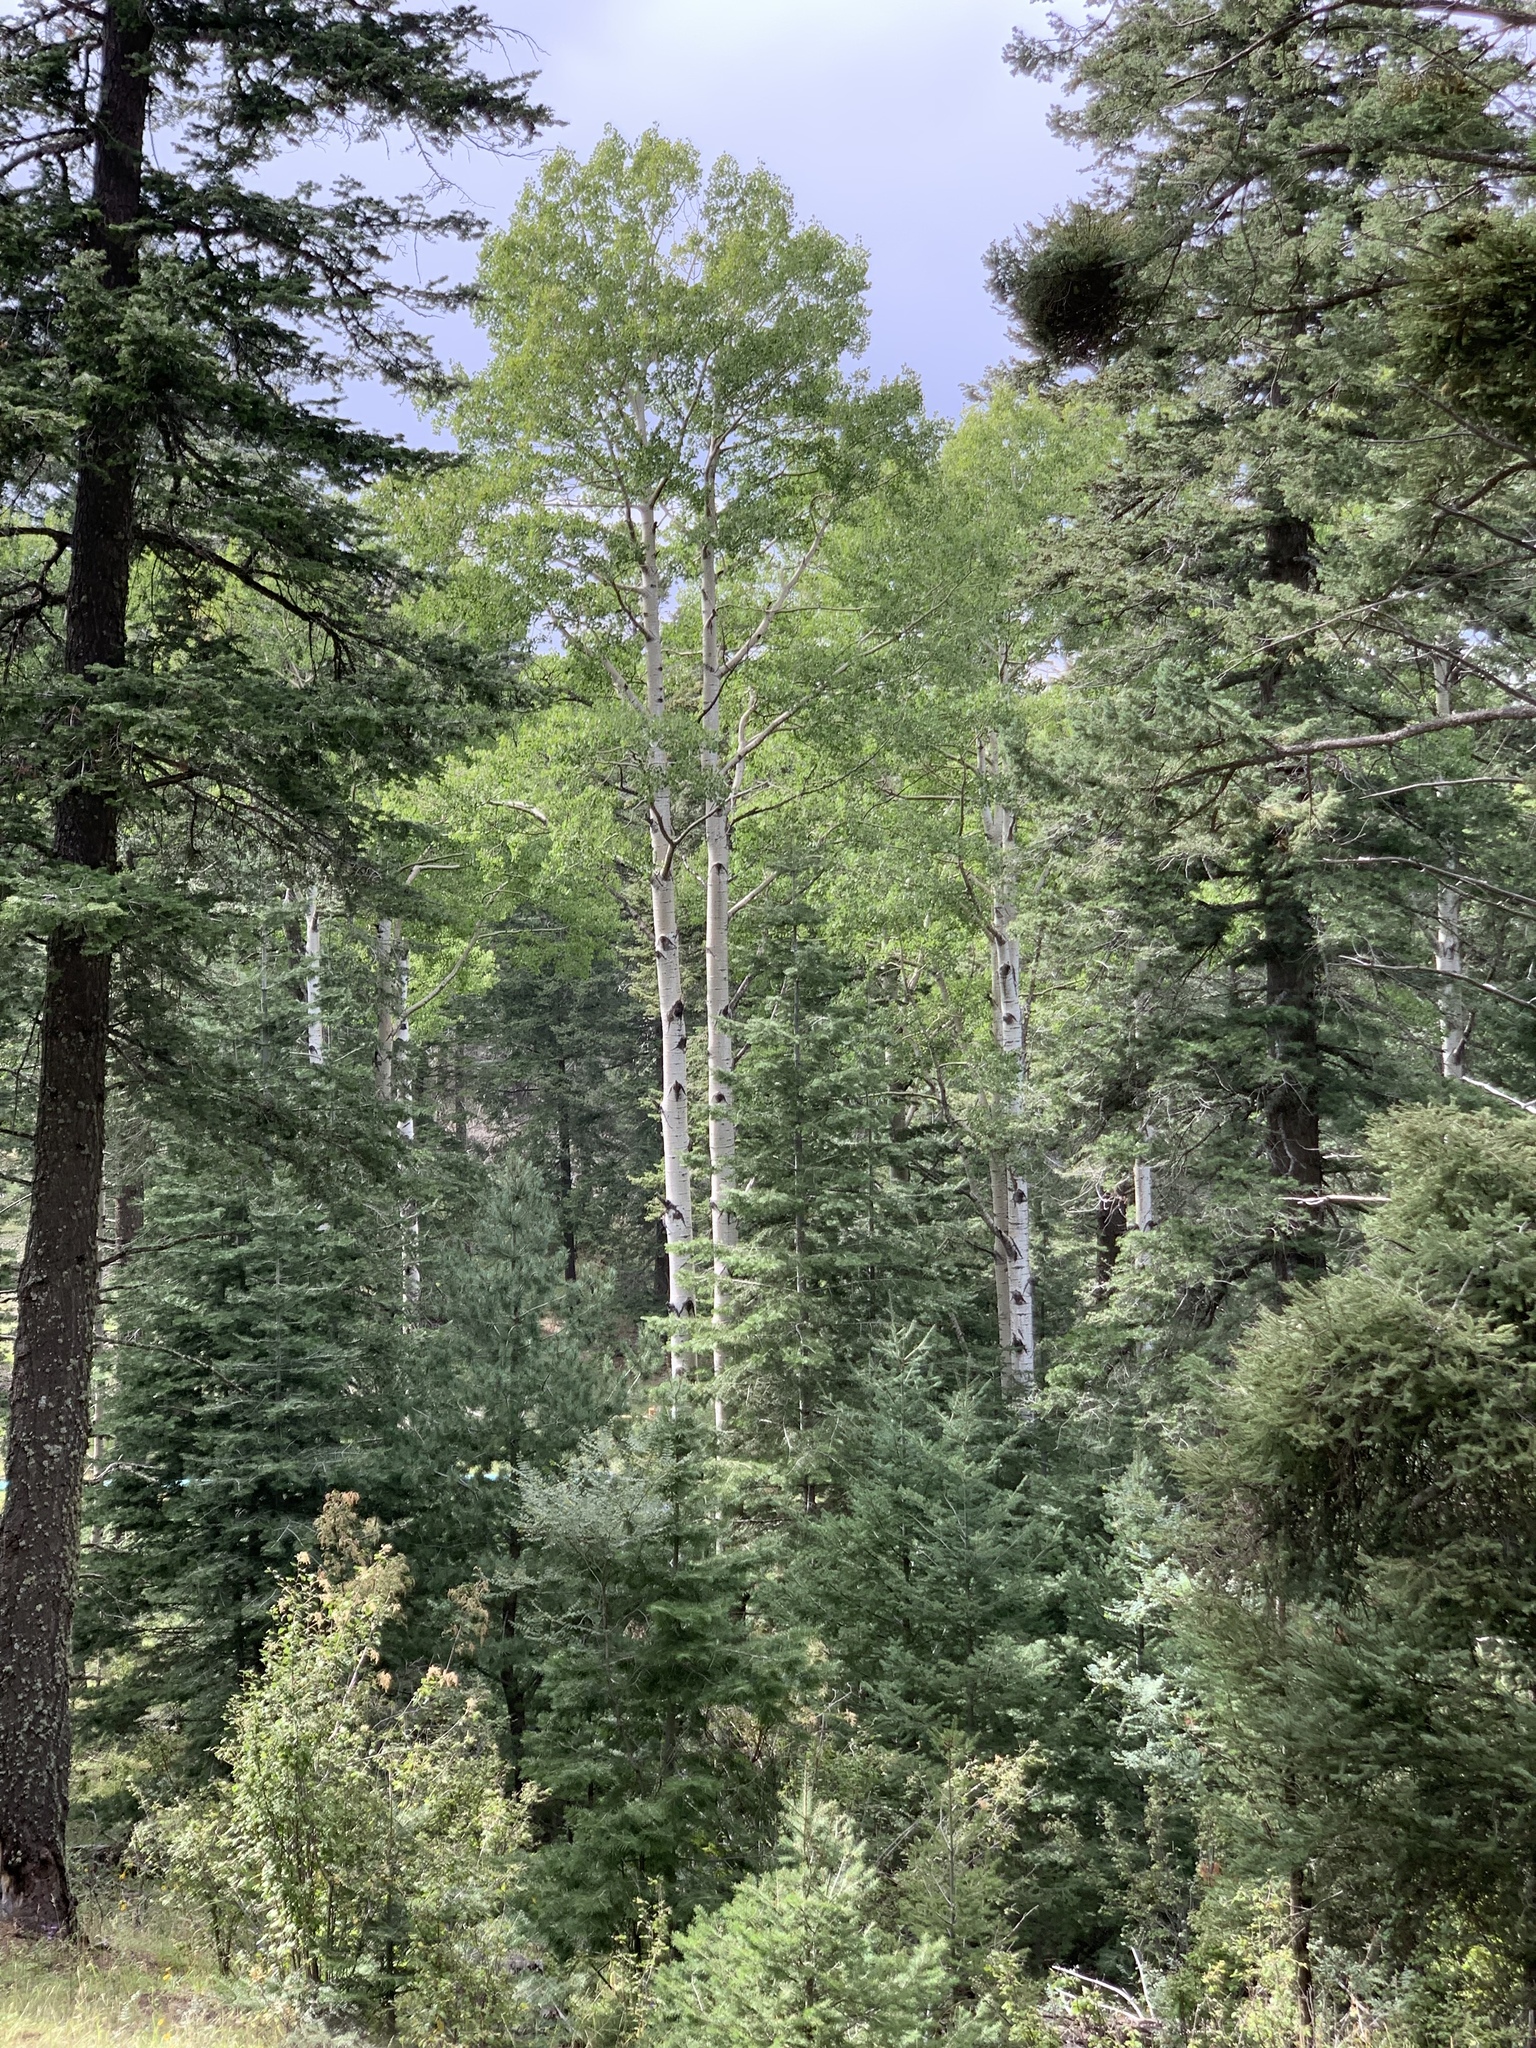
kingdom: Plantae
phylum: Tracheophyta
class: Magnoliopsida
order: Malpighiales
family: Salicaceae
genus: Populus
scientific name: Populus tremuloides
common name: Quaking aspen
